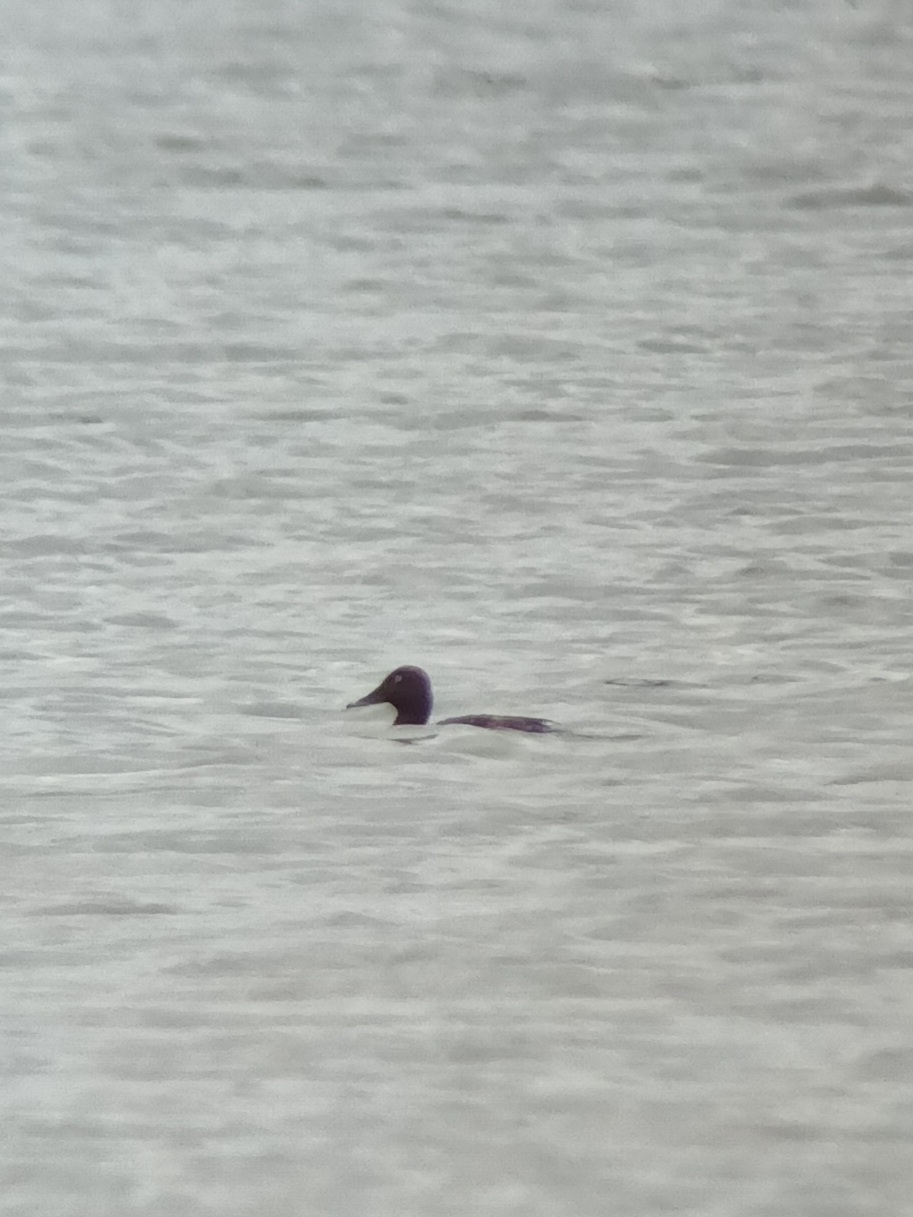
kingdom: Animalia
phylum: Chordata
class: Aves
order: Anseriformes
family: Anatidae
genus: Aythya
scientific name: Aythya nyroca
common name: Ferruginous duck
